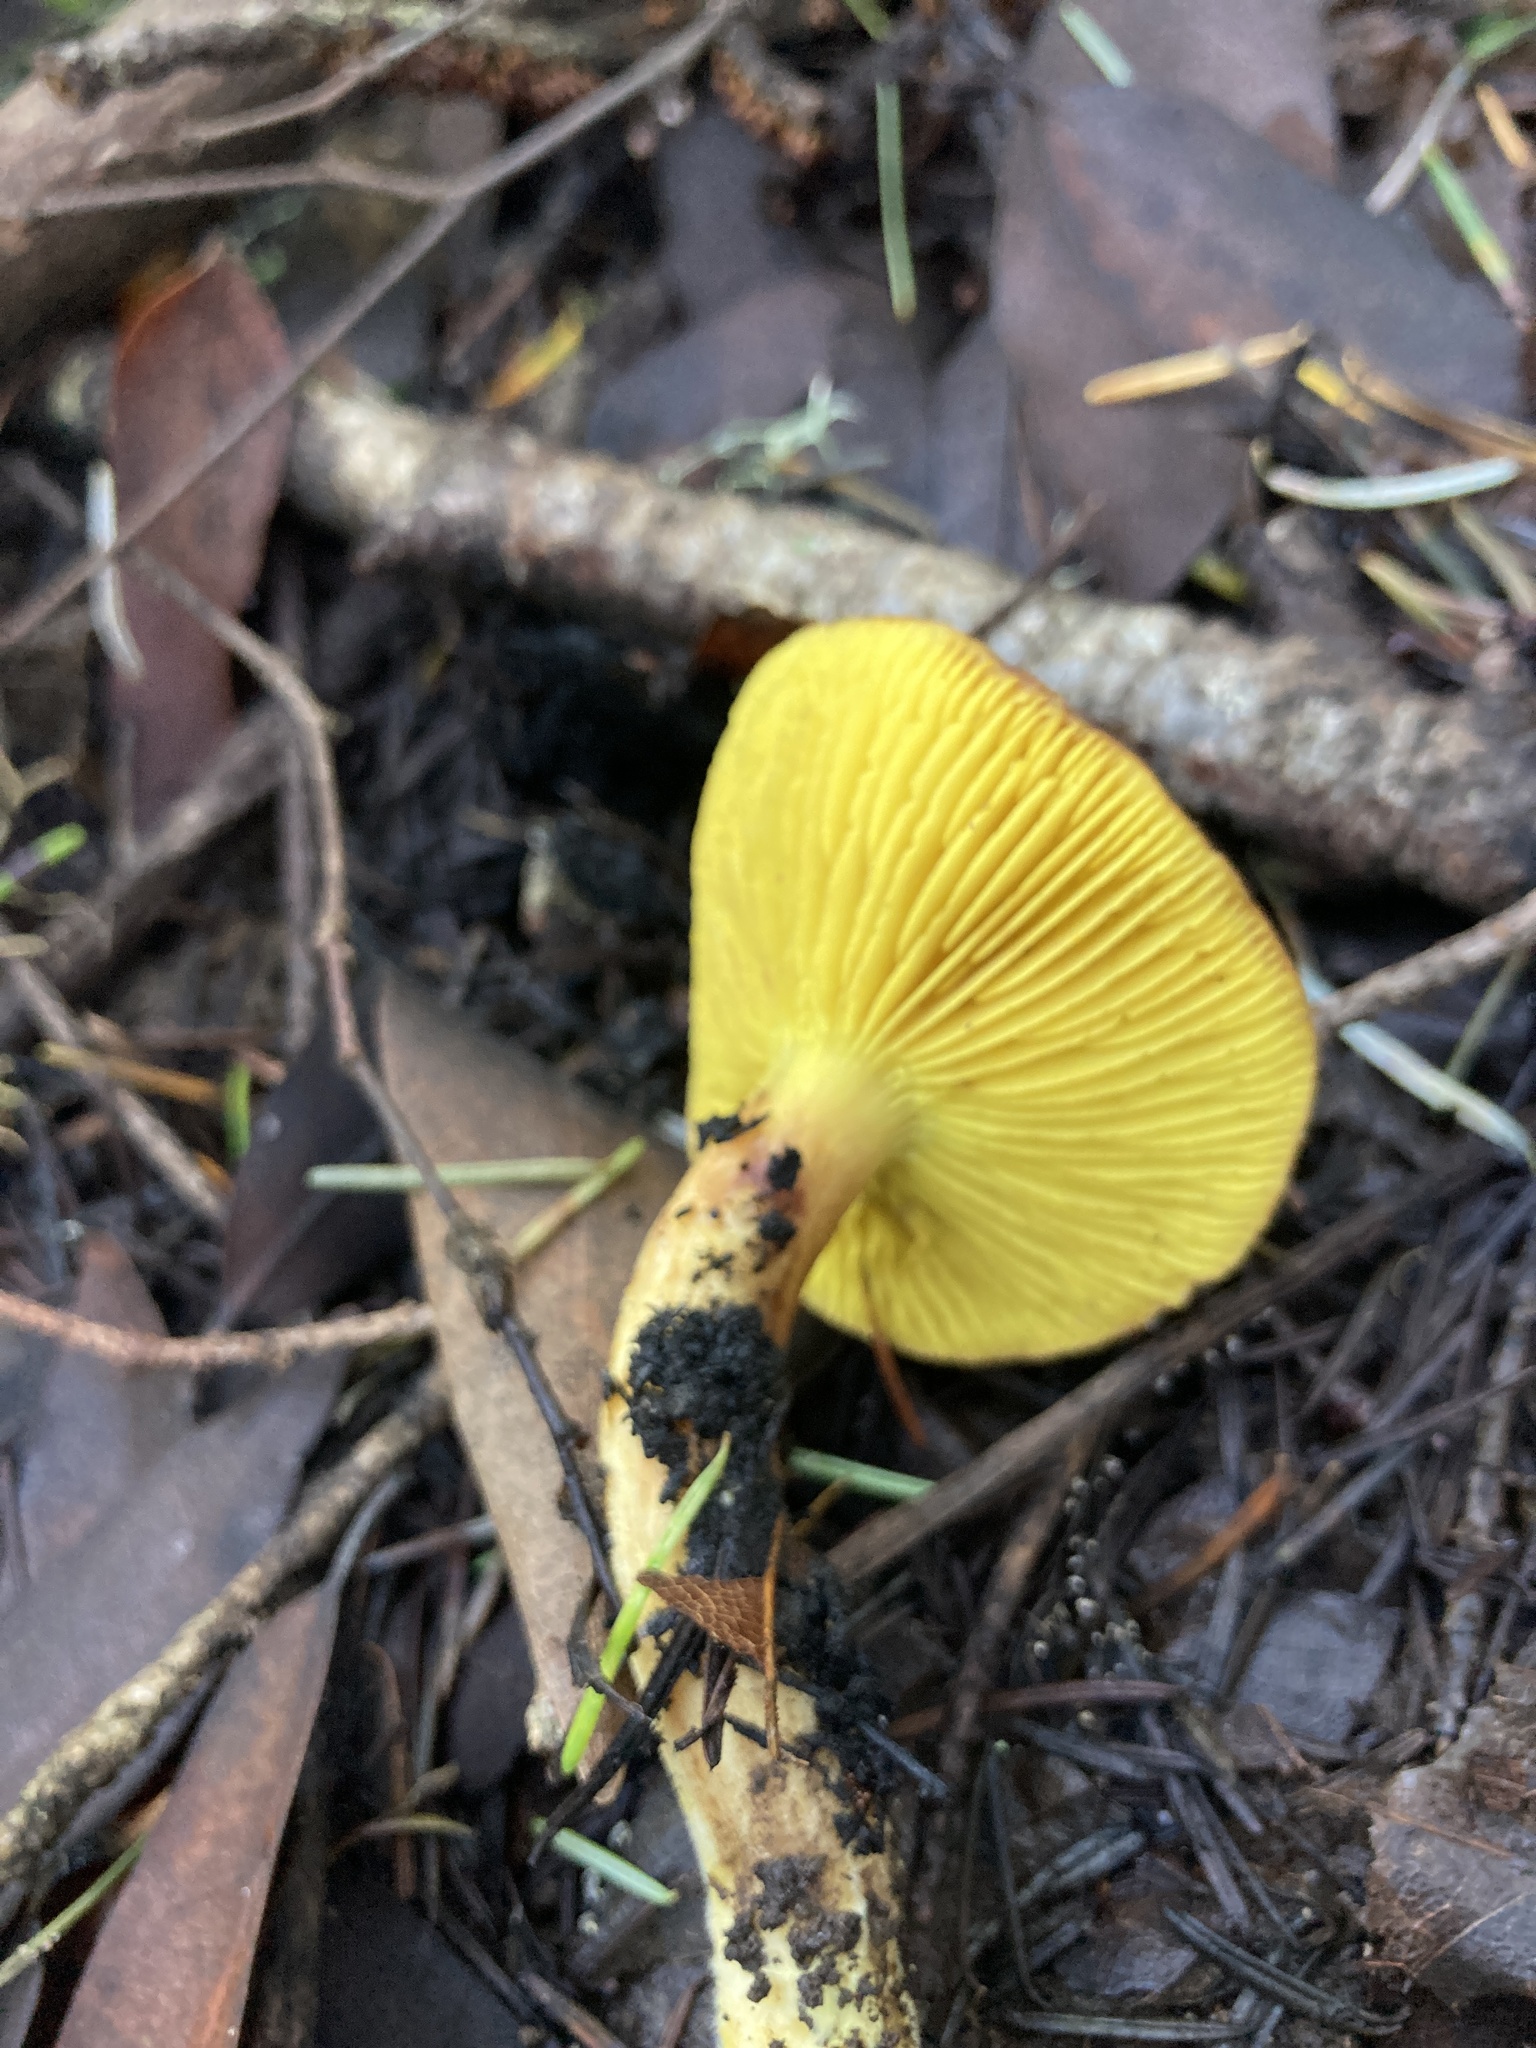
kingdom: Fungi
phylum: Basidiomycota
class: Agaricomycetes
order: Boletales
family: Boletaceae
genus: Phylloporus
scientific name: Phylloporus arenicola
